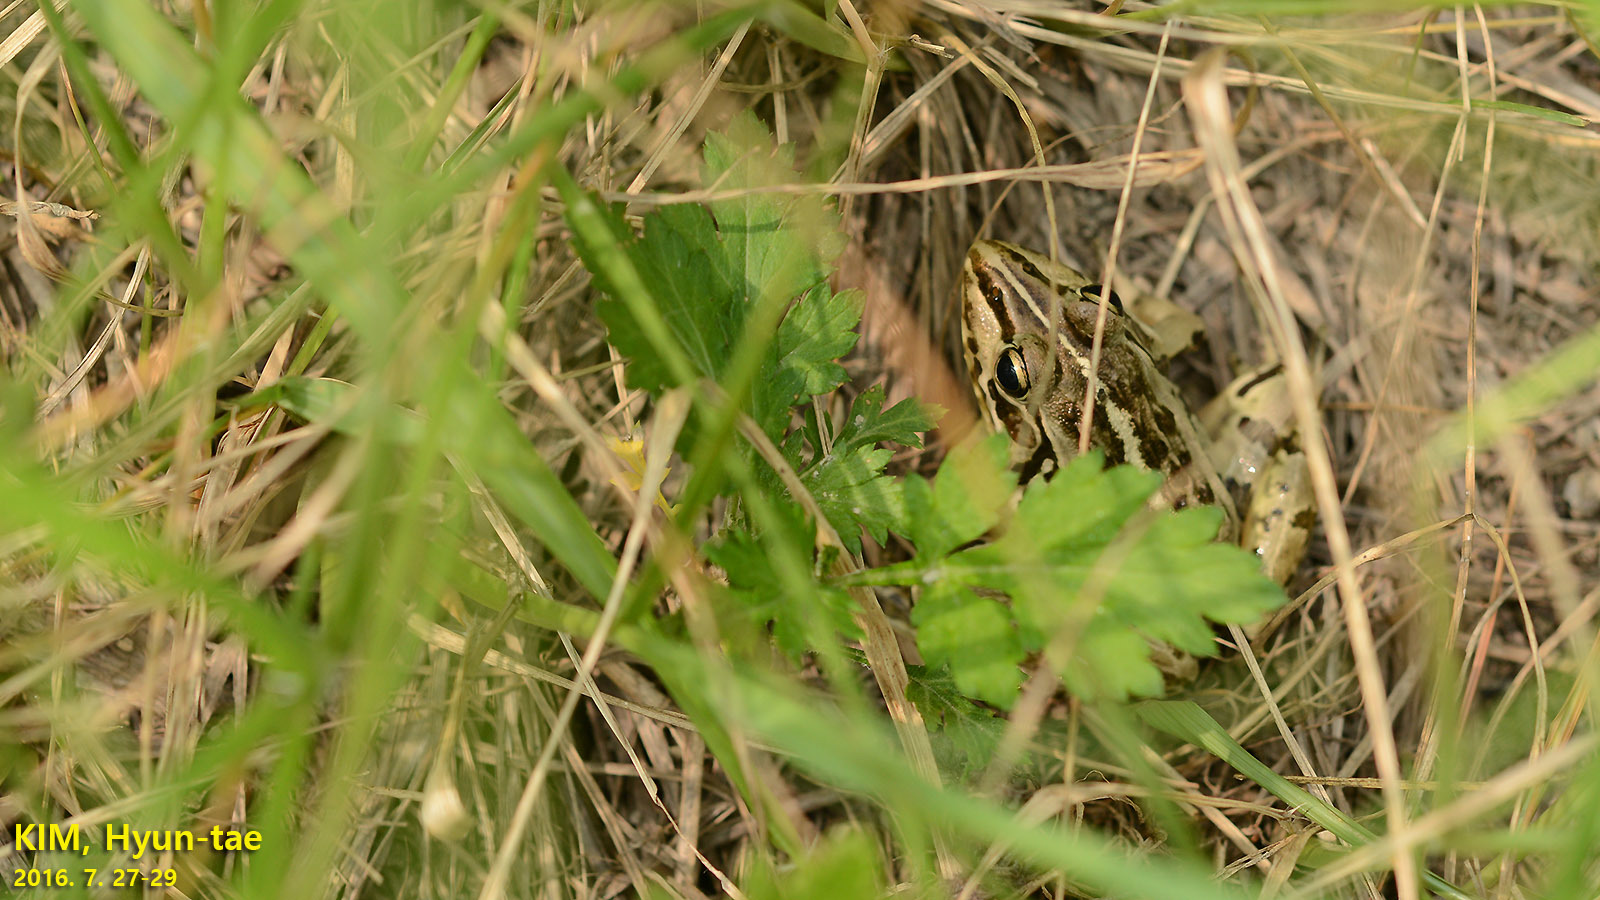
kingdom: Animalia
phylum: Chordata
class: Amphibia
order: Anura
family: Ranidae
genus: Pelophylax
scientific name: Pelophylax nigromaculatus
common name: Black-spotted pond frog
